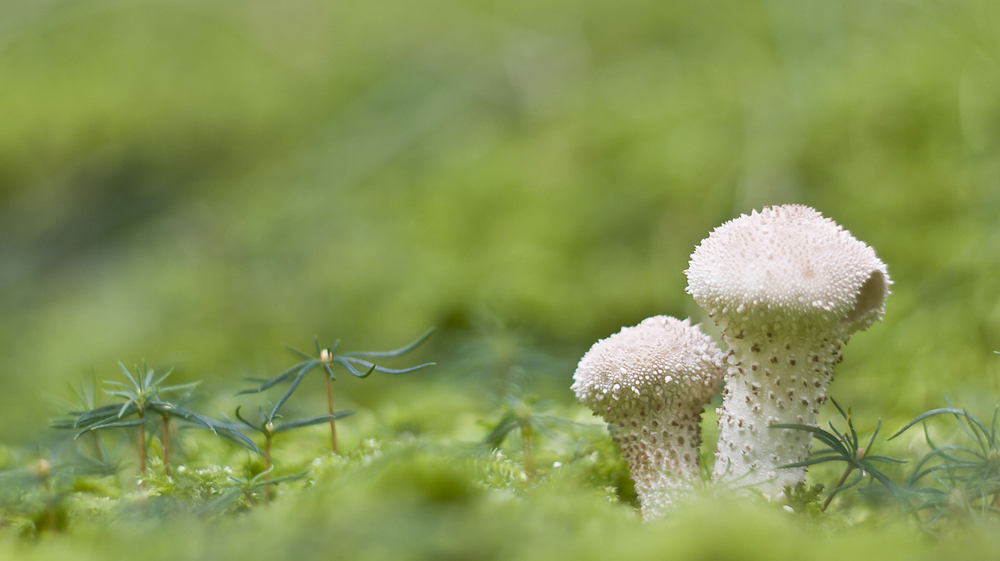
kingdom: Fungi
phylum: Basidiomycota
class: Agaricomycetes
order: Agaricales
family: Lycoperdaceae
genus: Lycoperdon
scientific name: Lycoperdon perlatum
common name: Common puffball
